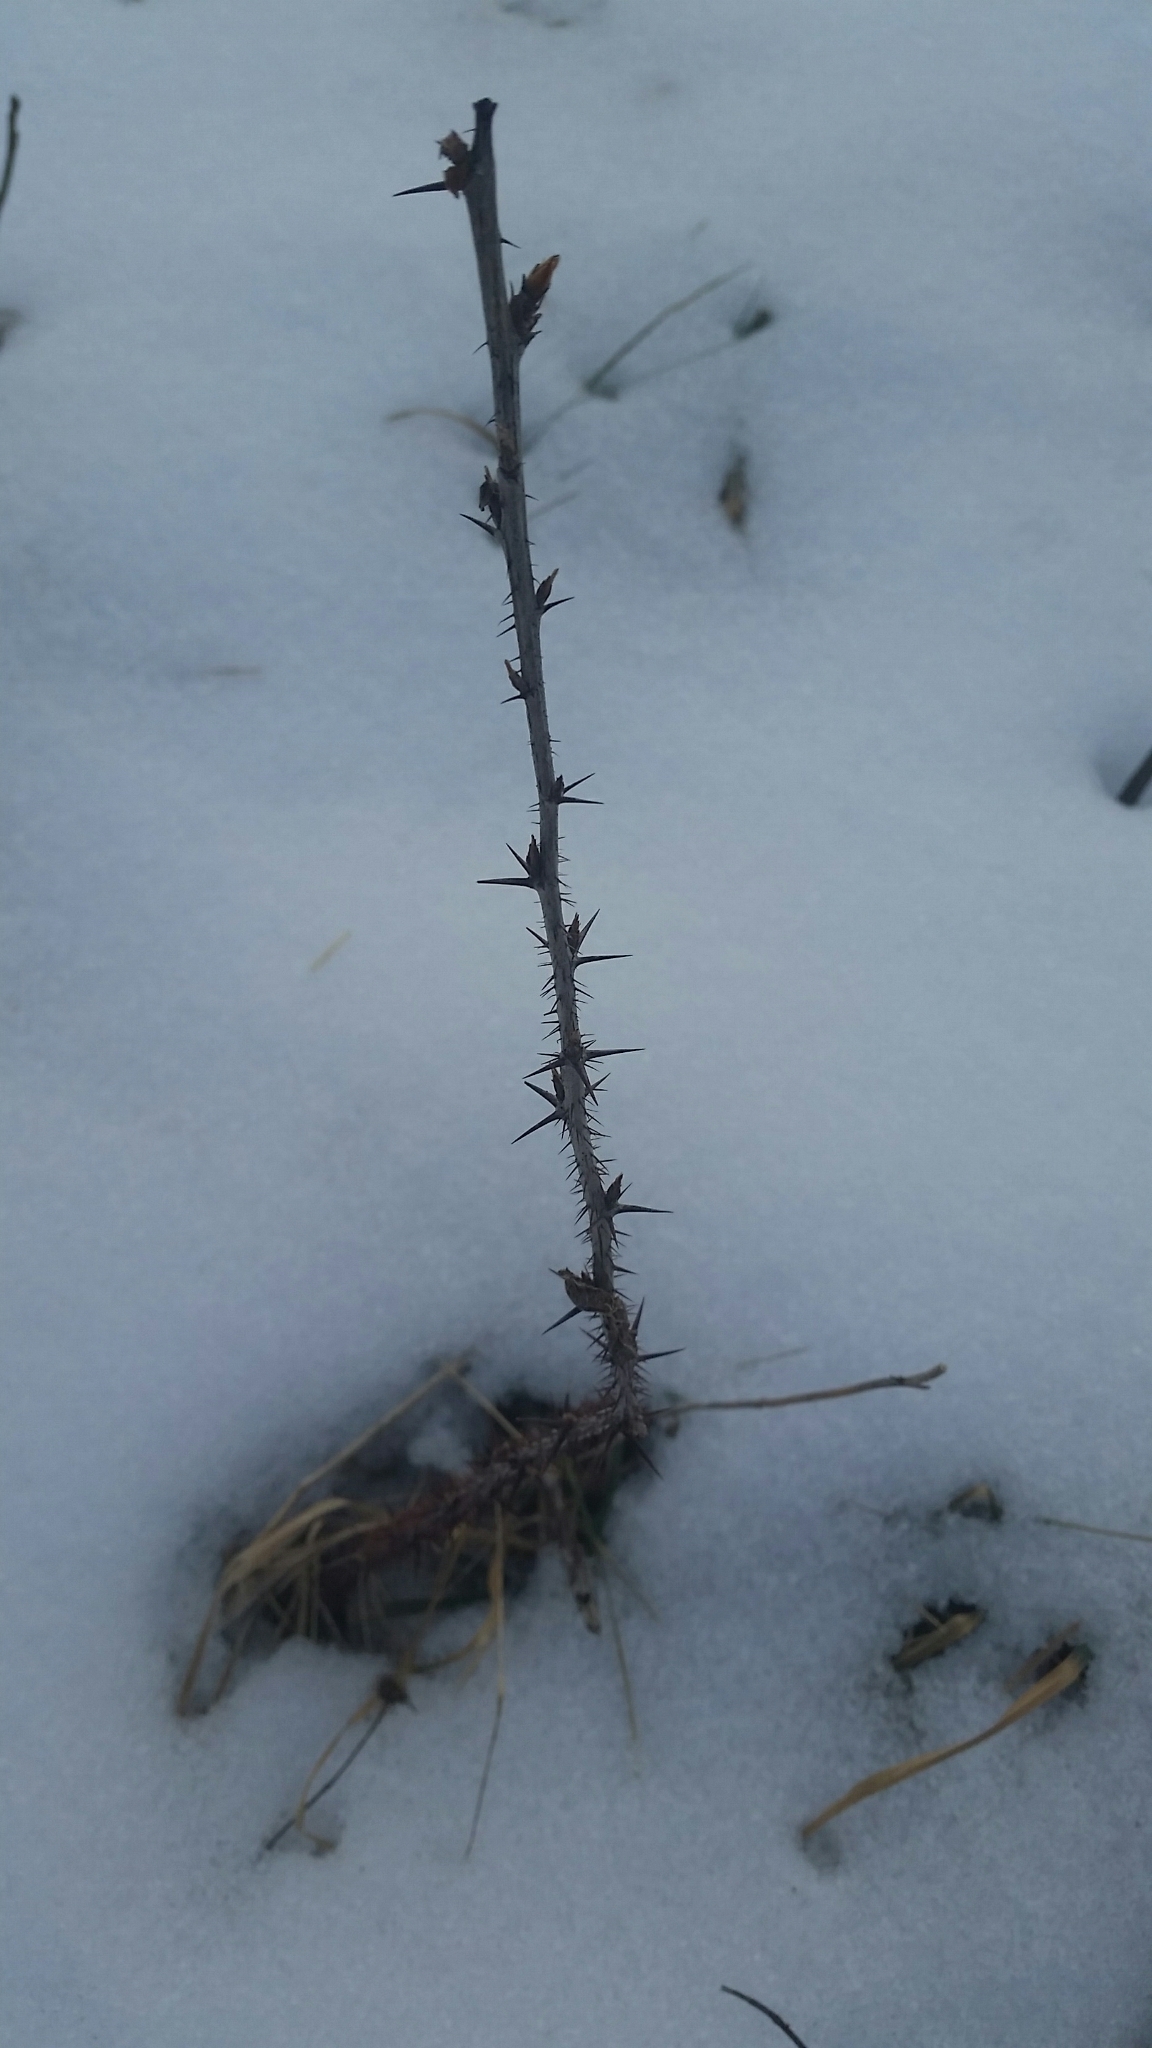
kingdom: Plantae
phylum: Tracheophyta
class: Magnoliopsida
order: Saxifragales
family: Grossulariaceae
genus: Ribes
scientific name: Ribes cynosbati
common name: American gooseberry
